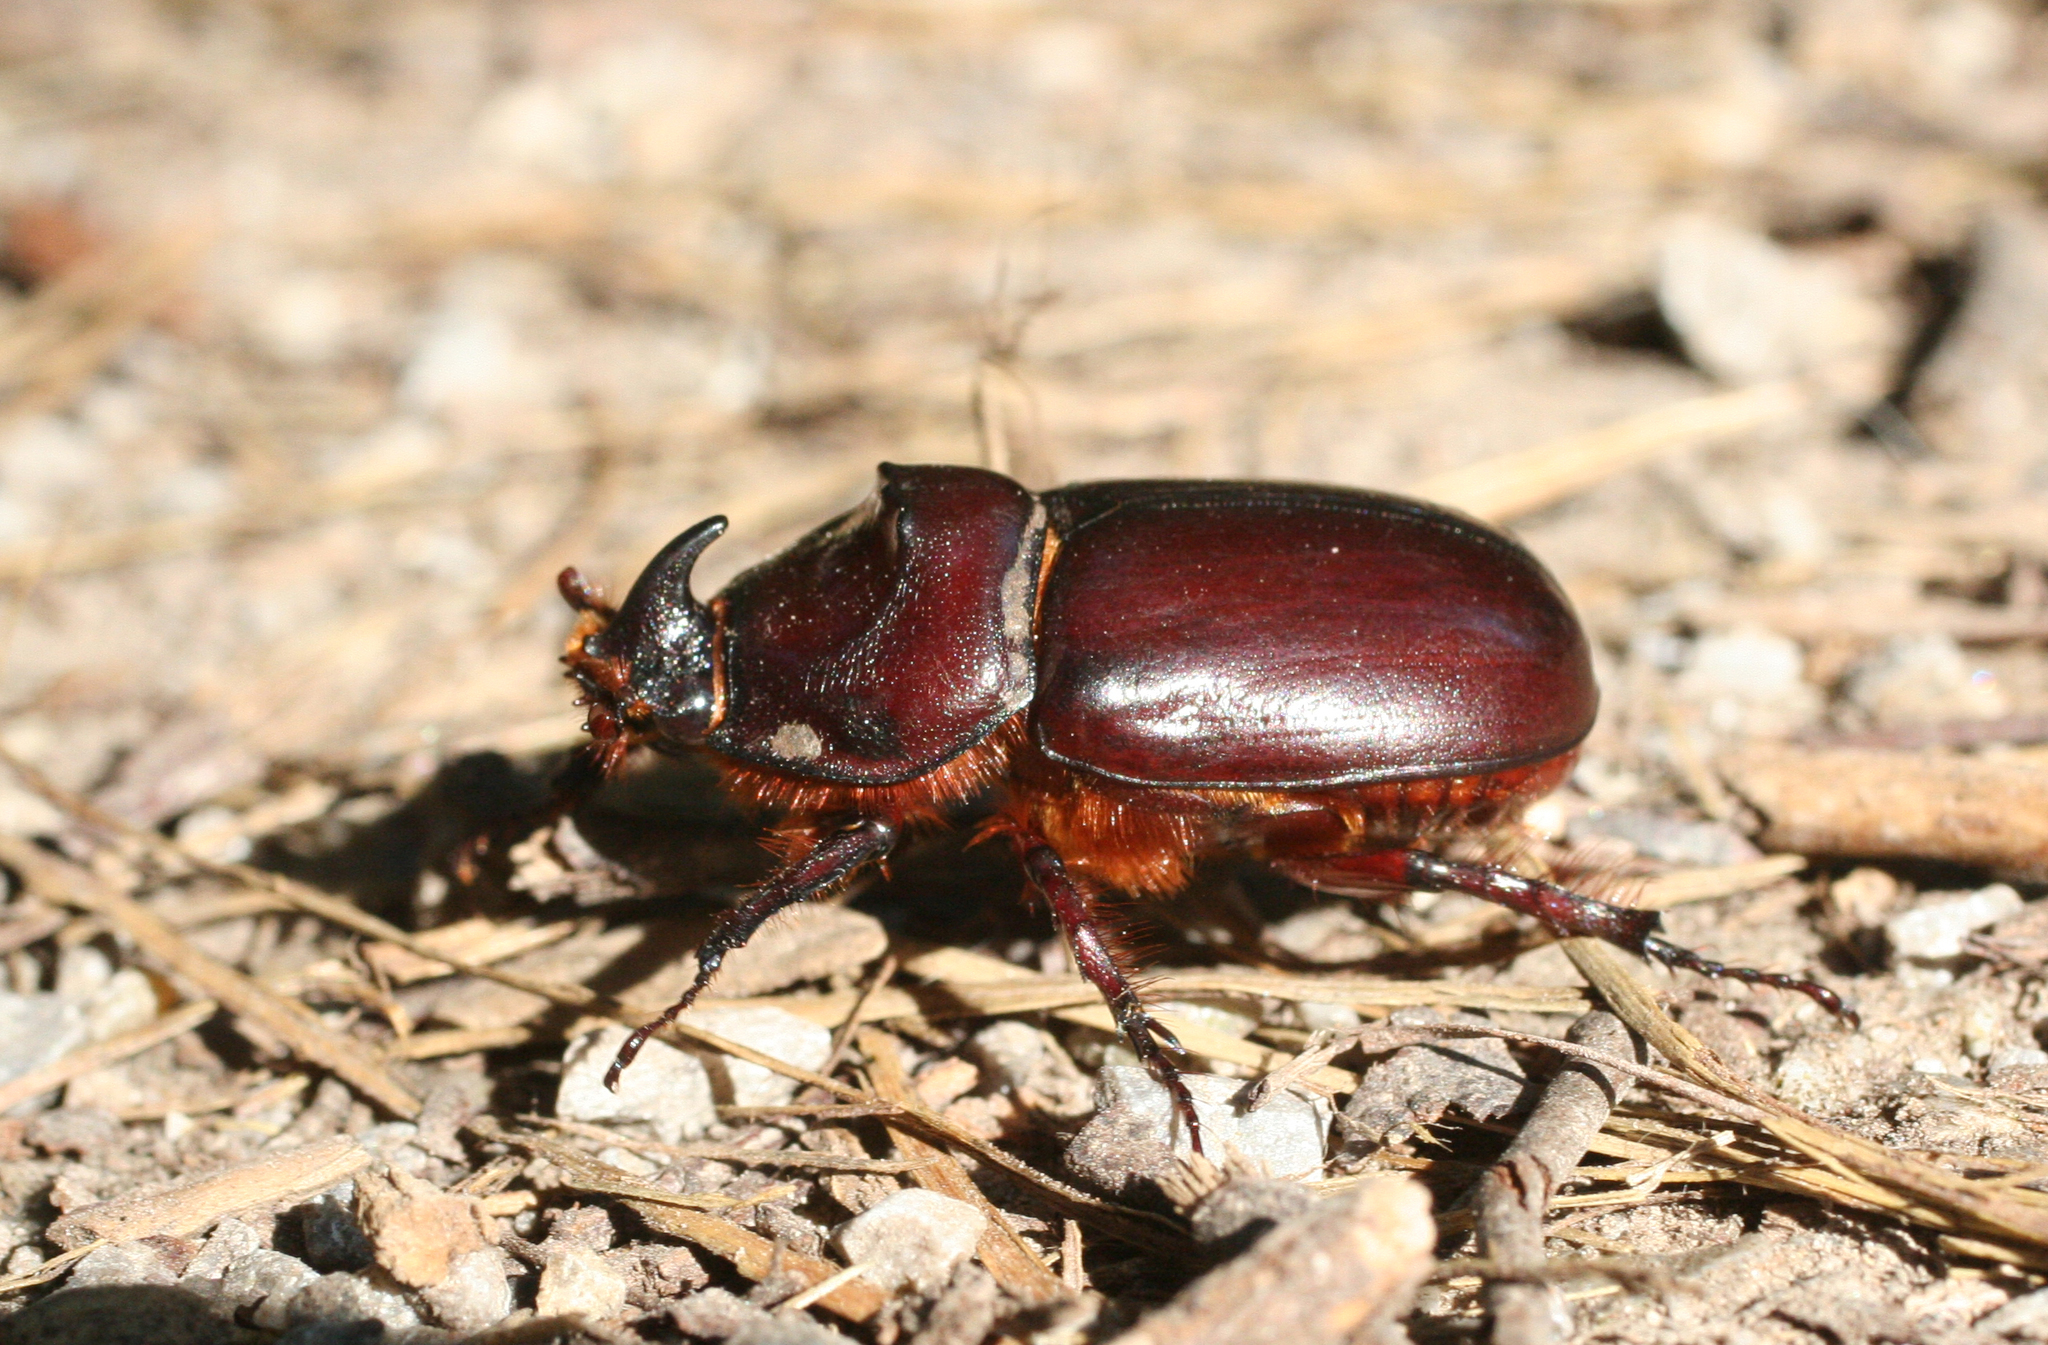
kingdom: Animalia
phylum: Arthropoda
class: Insecta
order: Coleoptera
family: Scarabaeidae
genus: Oryctes
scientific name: Oryctes nasicornis
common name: European rhinoceros beetle
